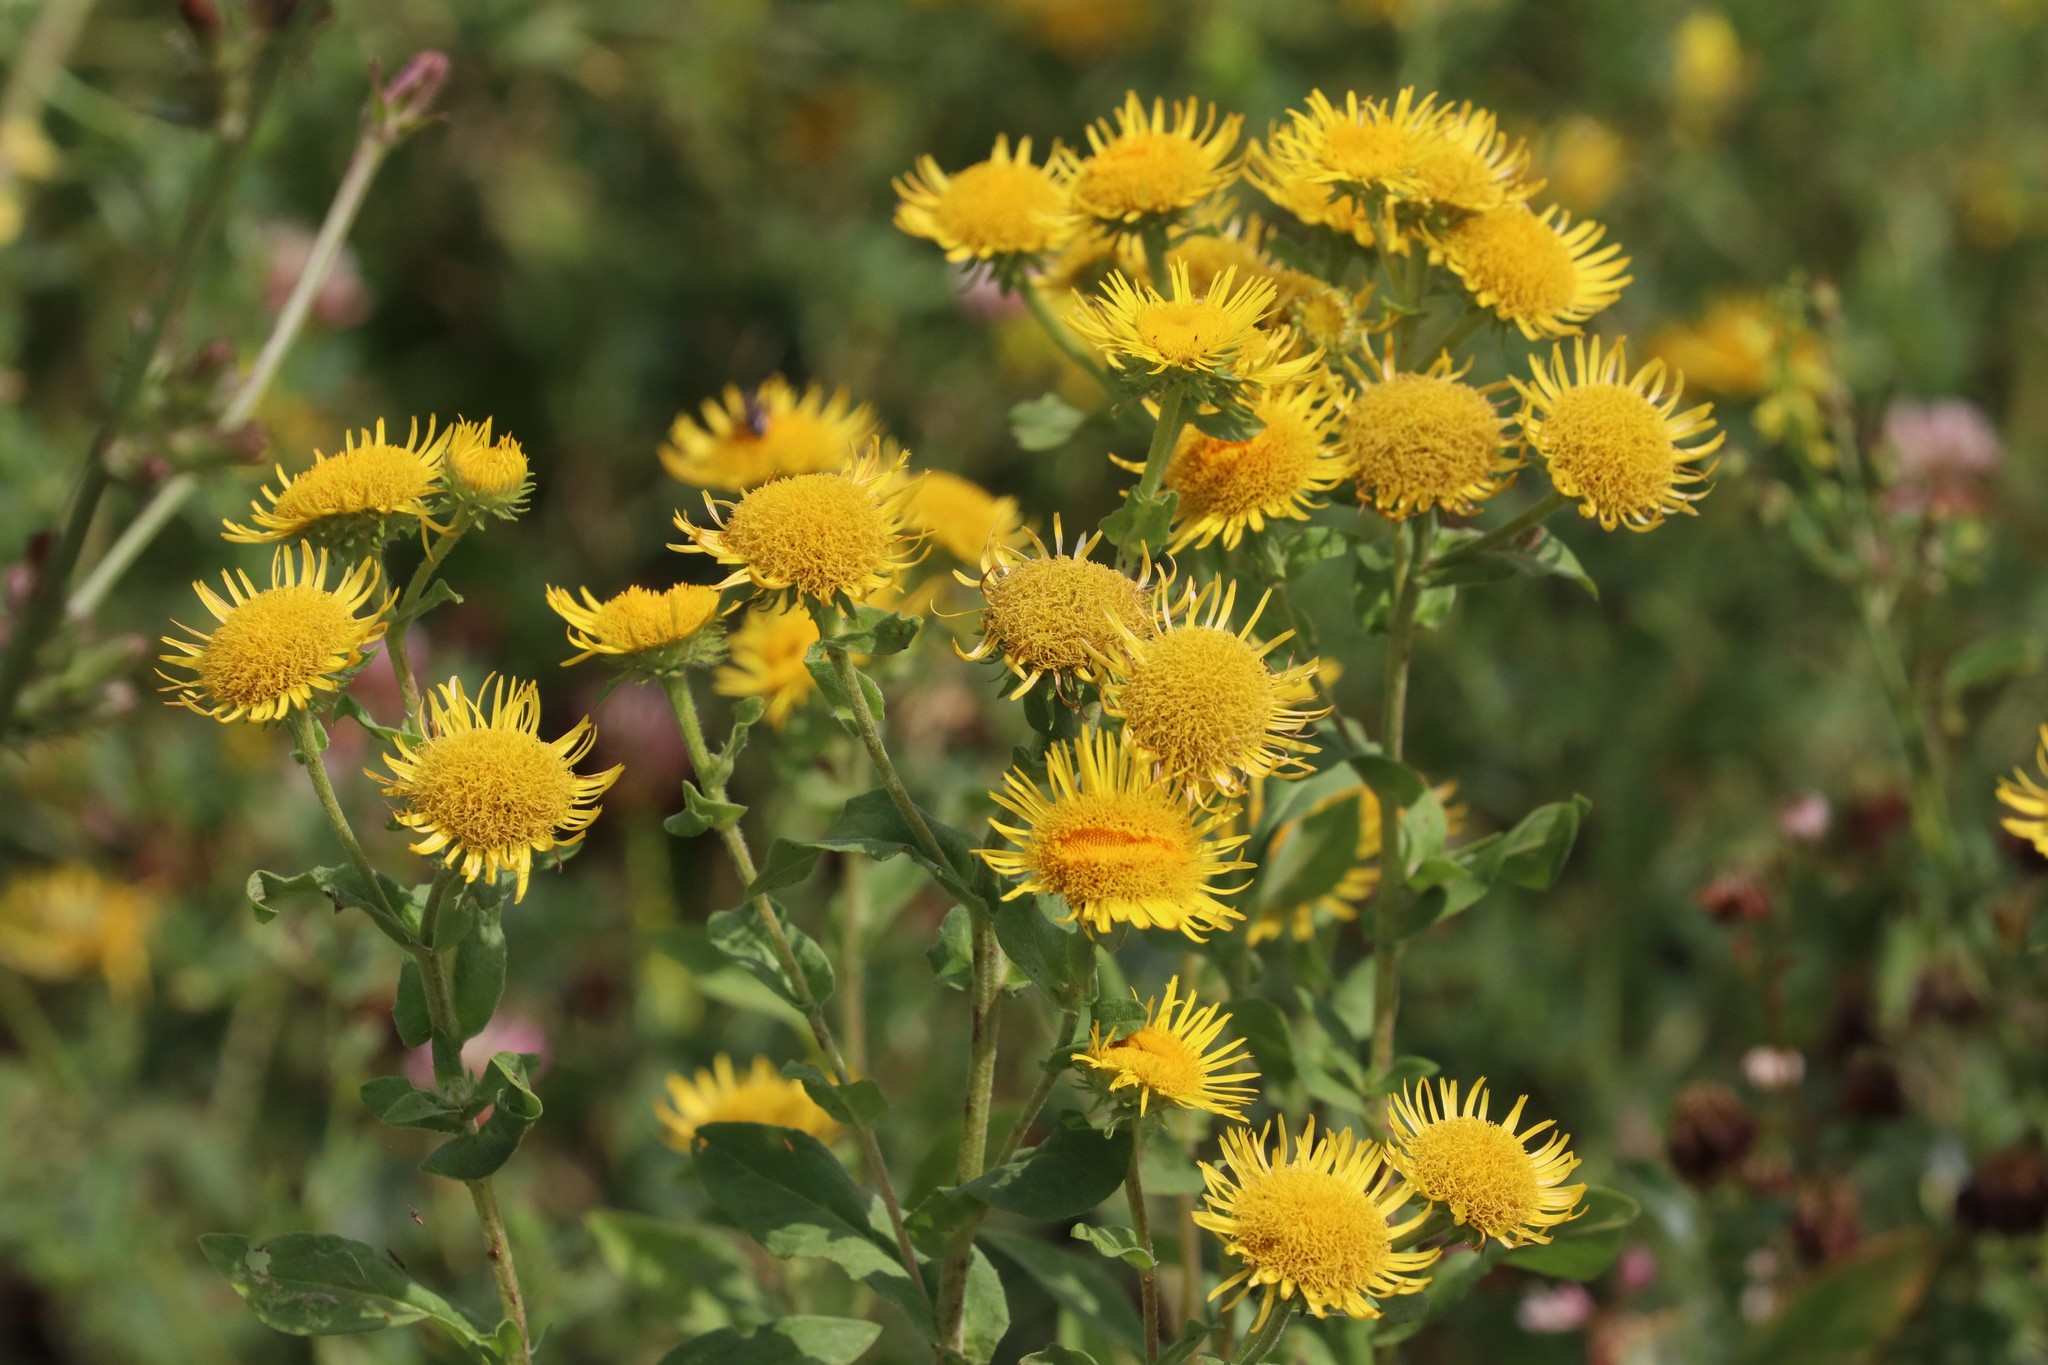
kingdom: Plantae
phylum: Tracheophyta
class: Magnoliopsida
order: Asterales
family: Asteraceae
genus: Pentanema
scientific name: Pentanema britannicum
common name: British elecampane
